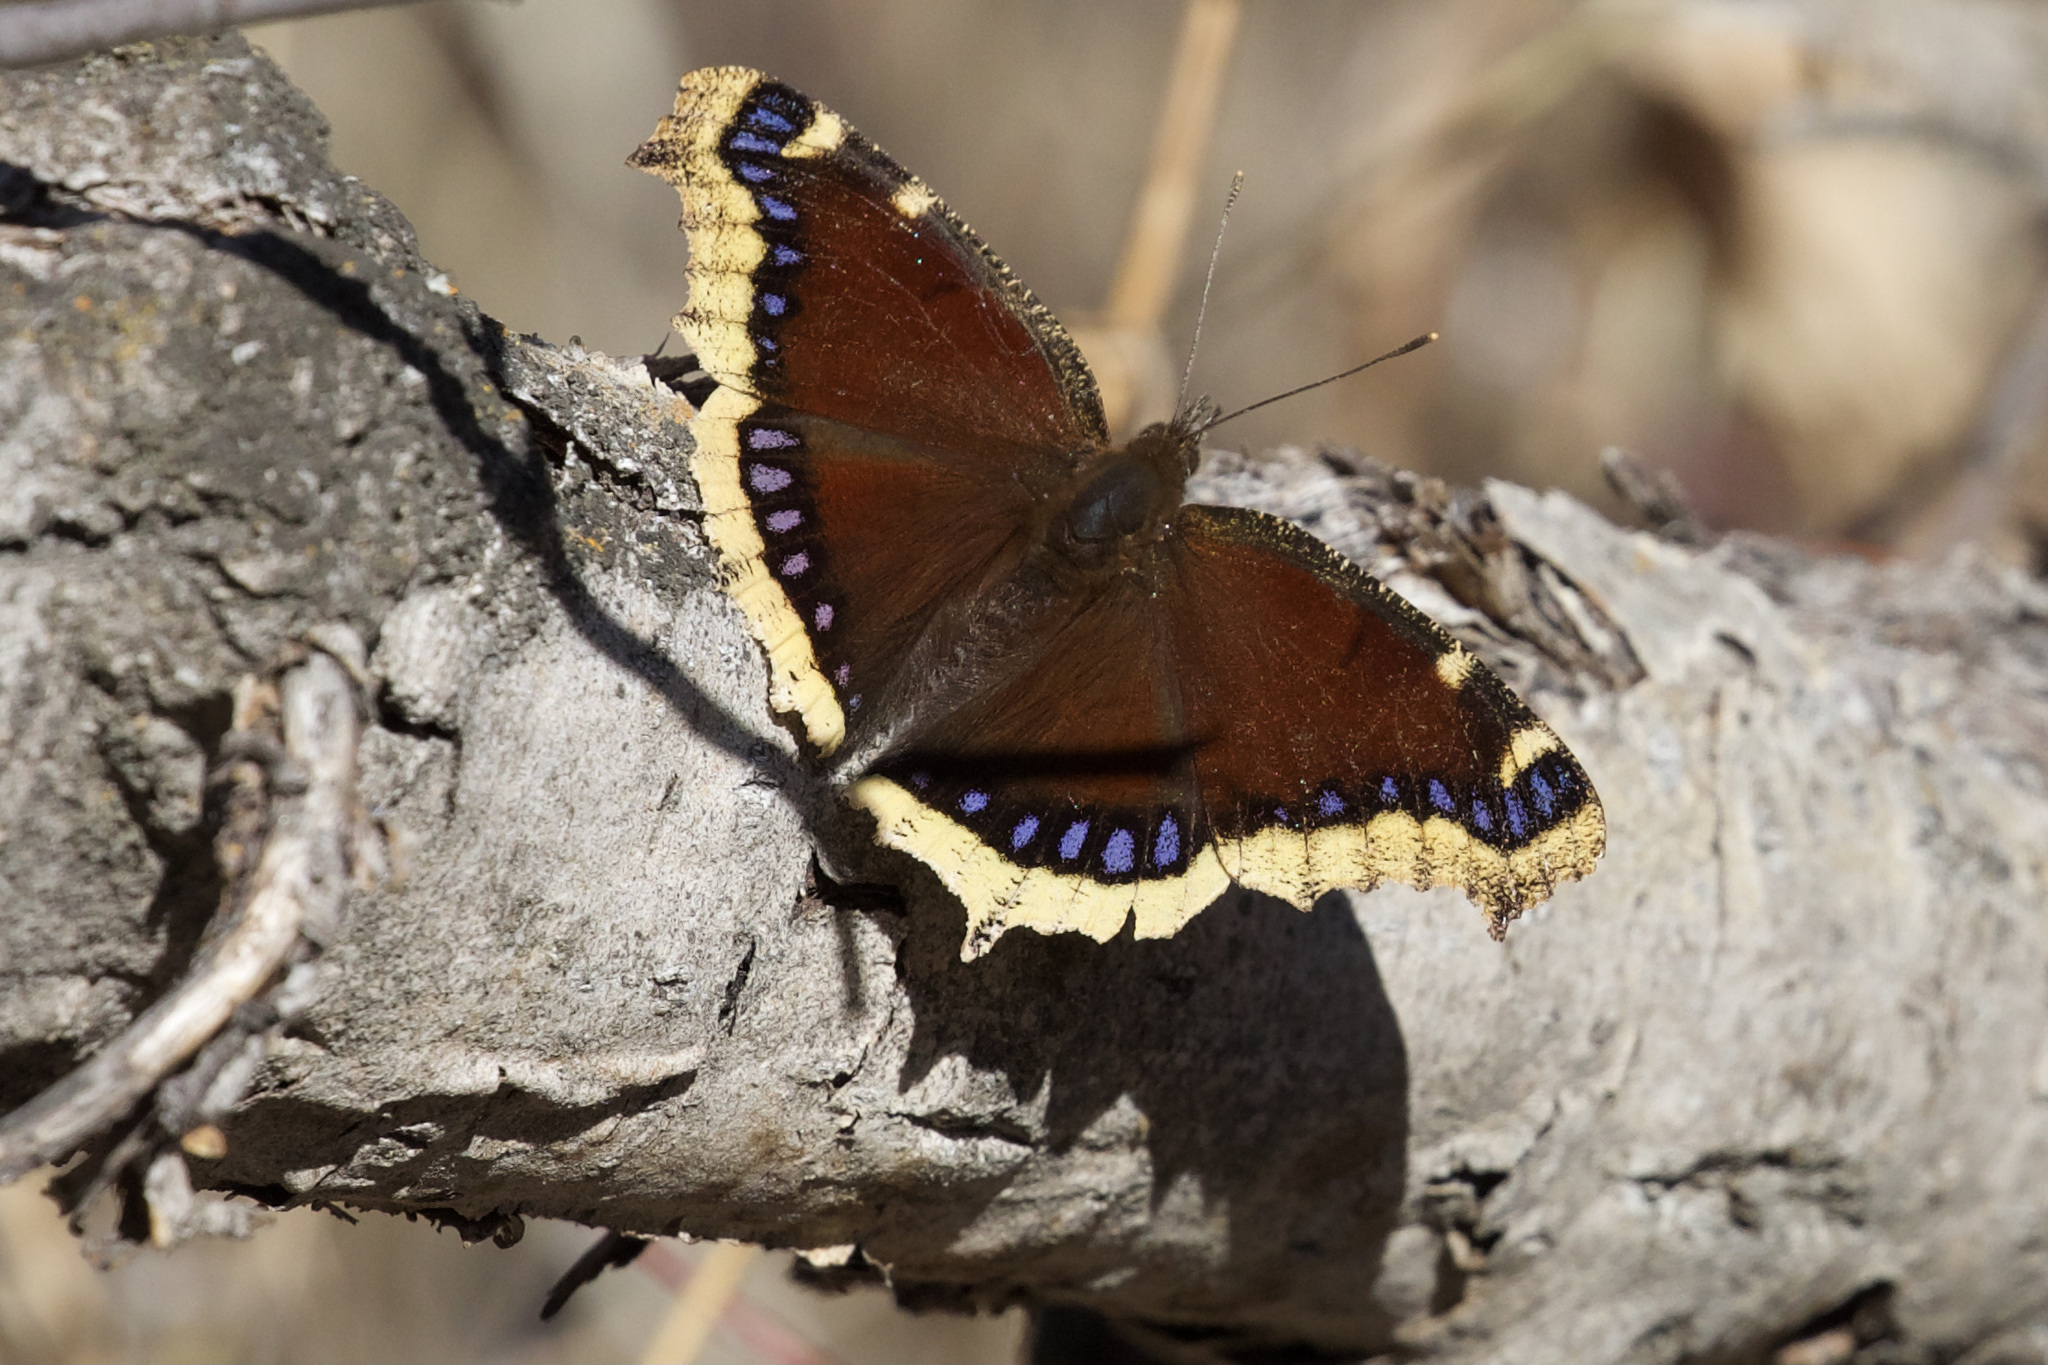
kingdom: Animalia
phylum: Arthropoda
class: Insecta
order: Lepidoptera
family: Nymphalidae
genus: Nymphalis
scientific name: Nymphalis antiopa
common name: Camberwell beauty
